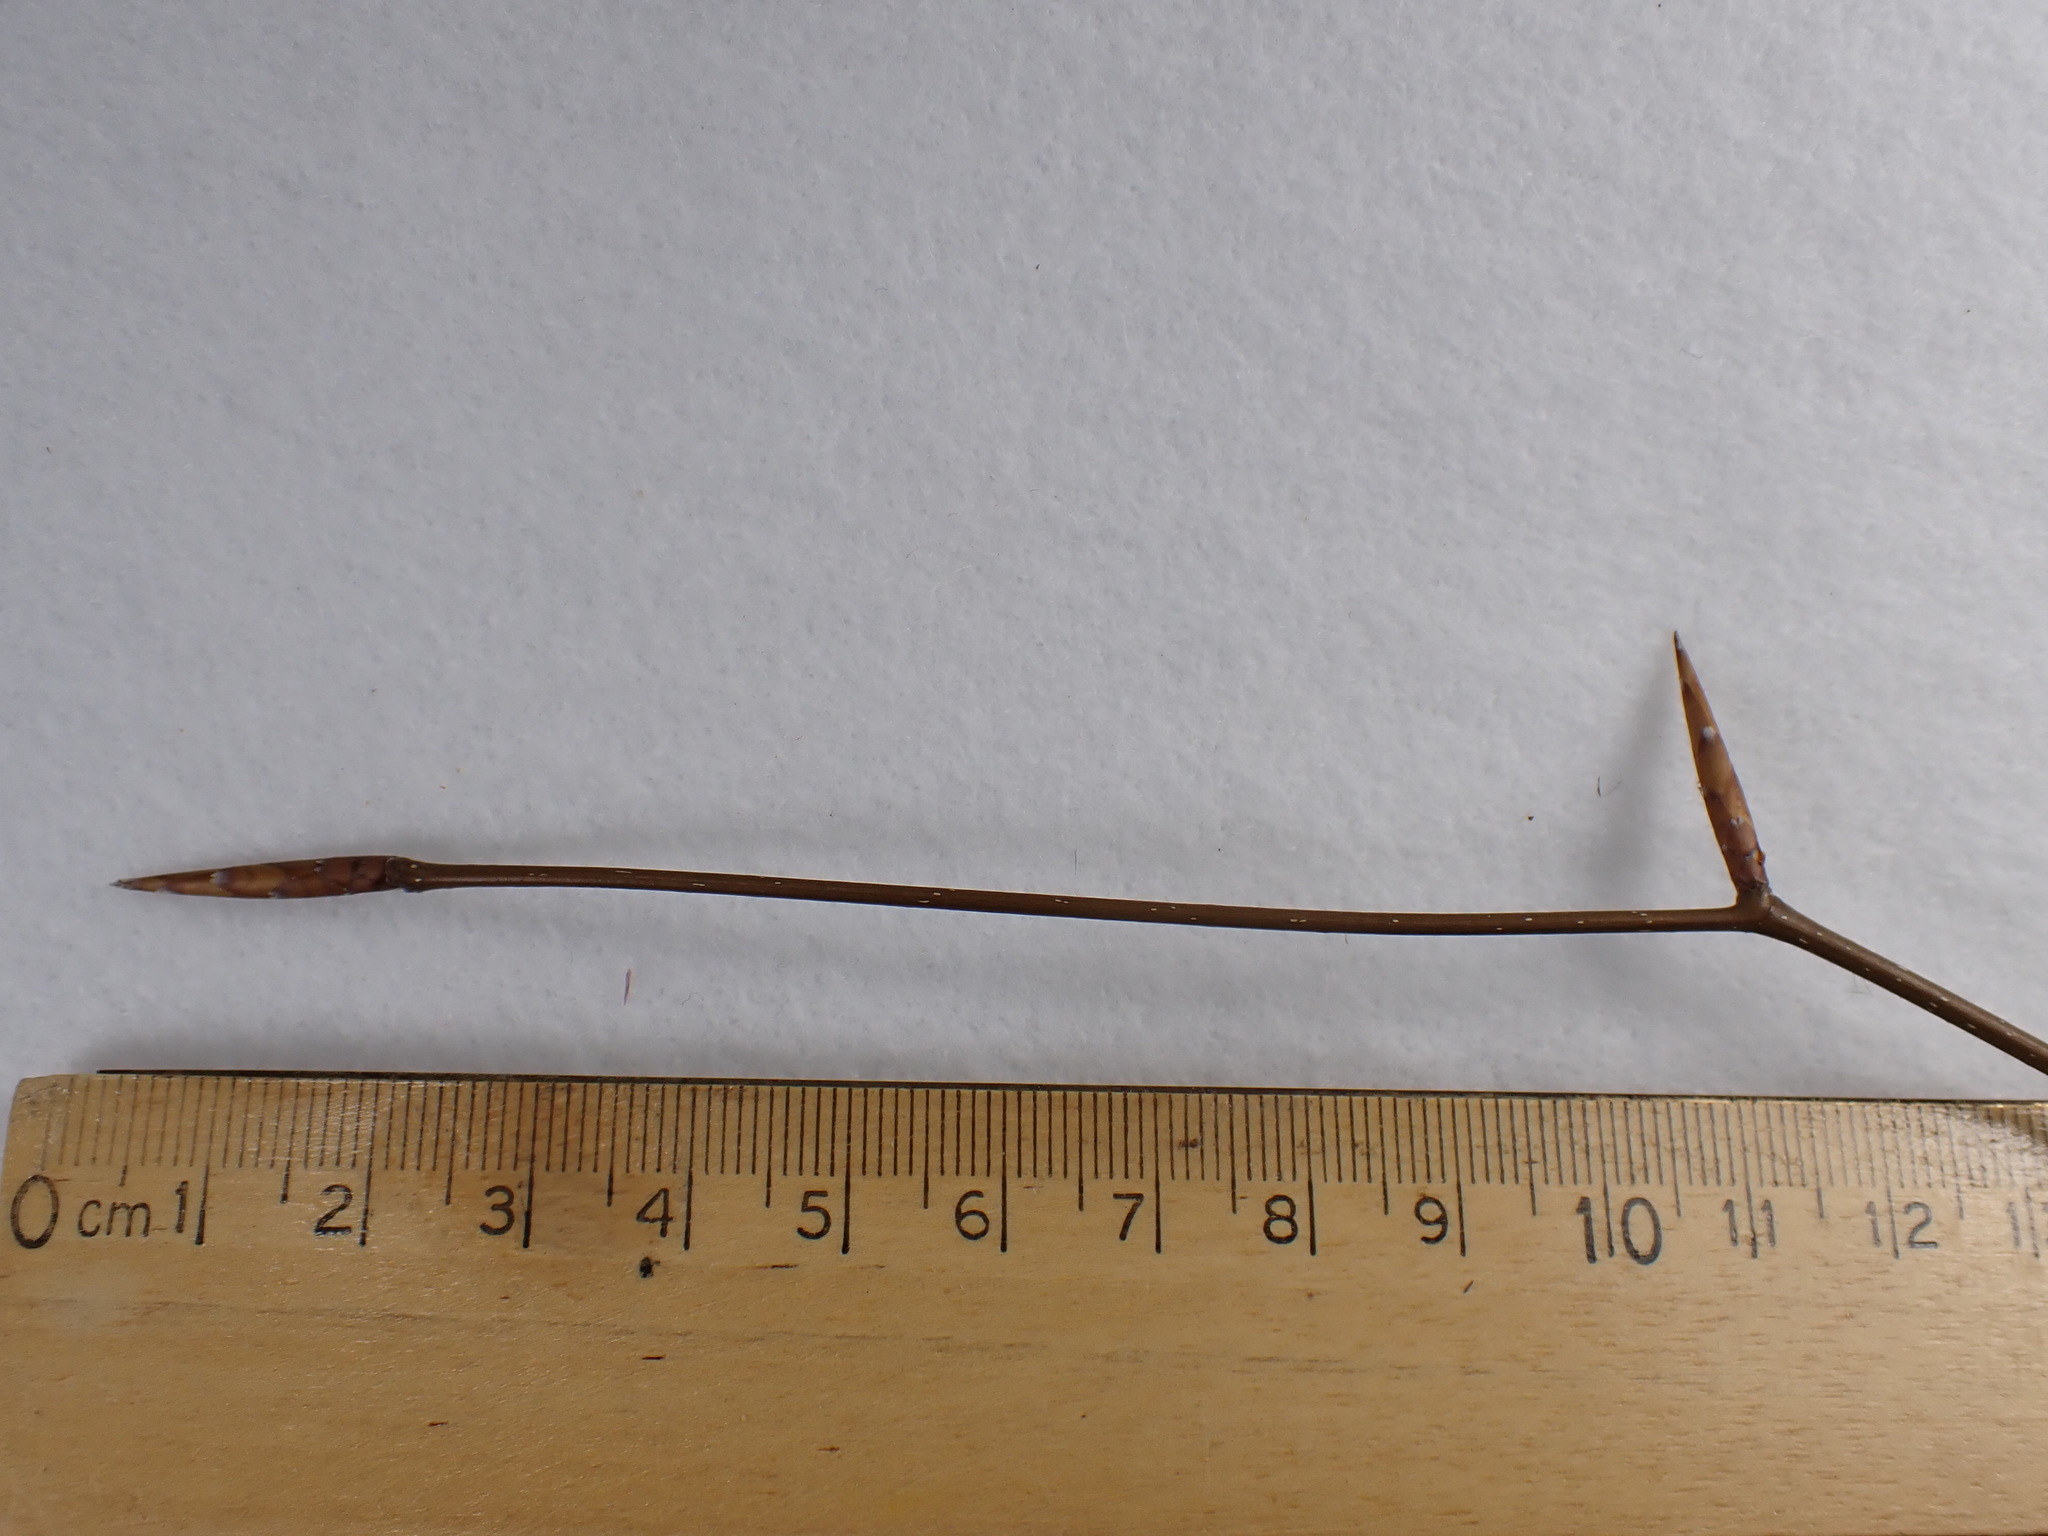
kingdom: Plantae
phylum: Tracheophyta
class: Magnoliopsida
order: Fagales
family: Fagaceae
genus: Fagus
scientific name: Fagus grandifolia
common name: American beech
